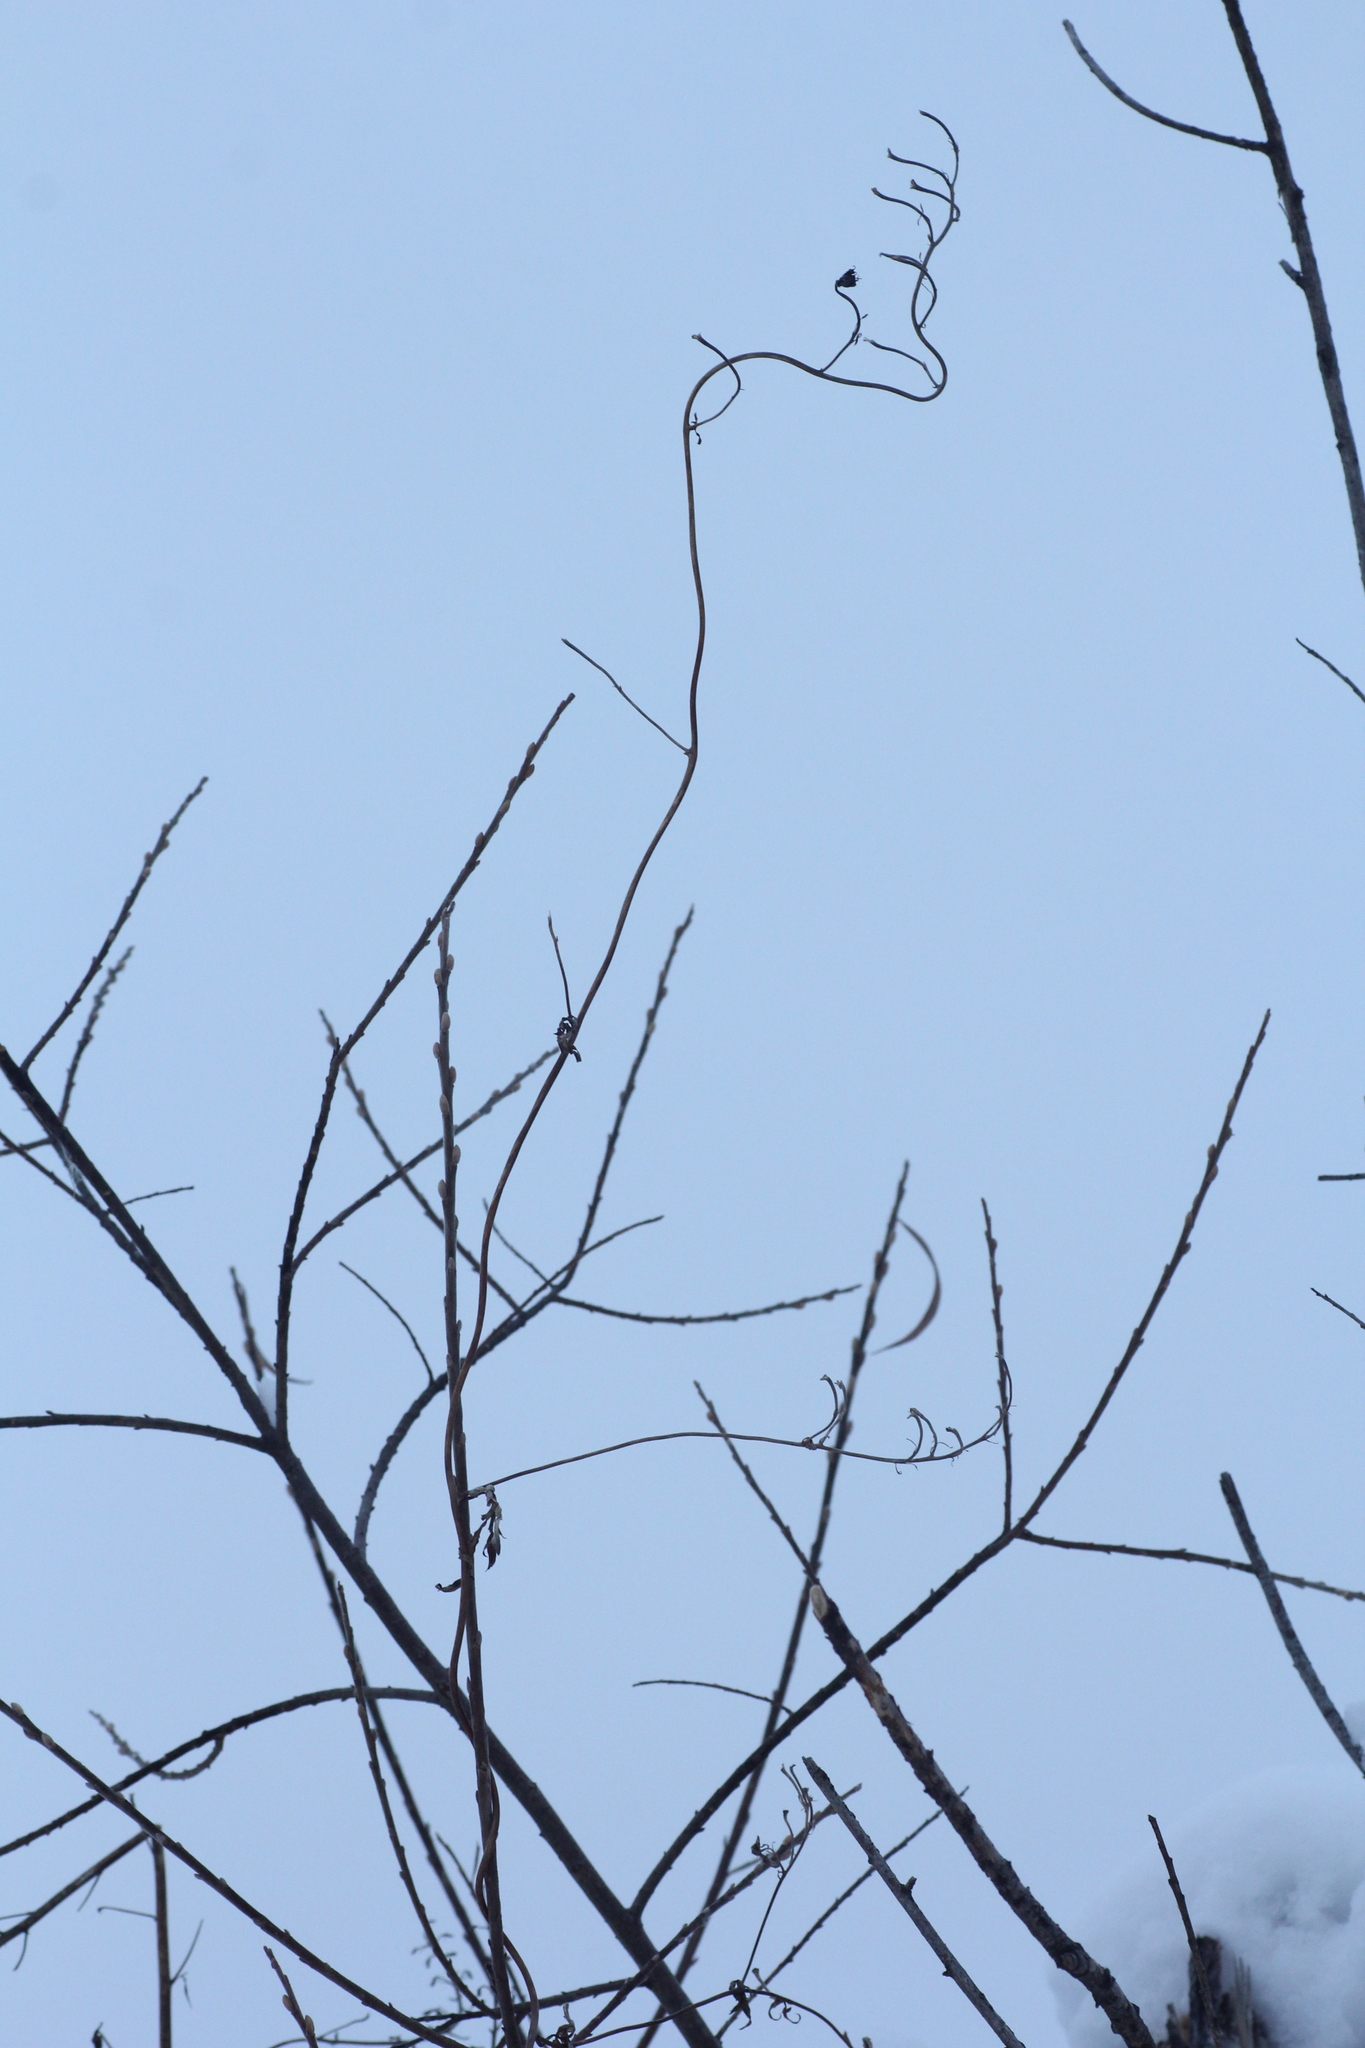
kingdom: Plantae
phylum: Tracheophyta
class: Magnoliopsida
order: Ranunculales
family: Ranunculaceae
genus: Aconitum
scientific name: Aconitum volubile
